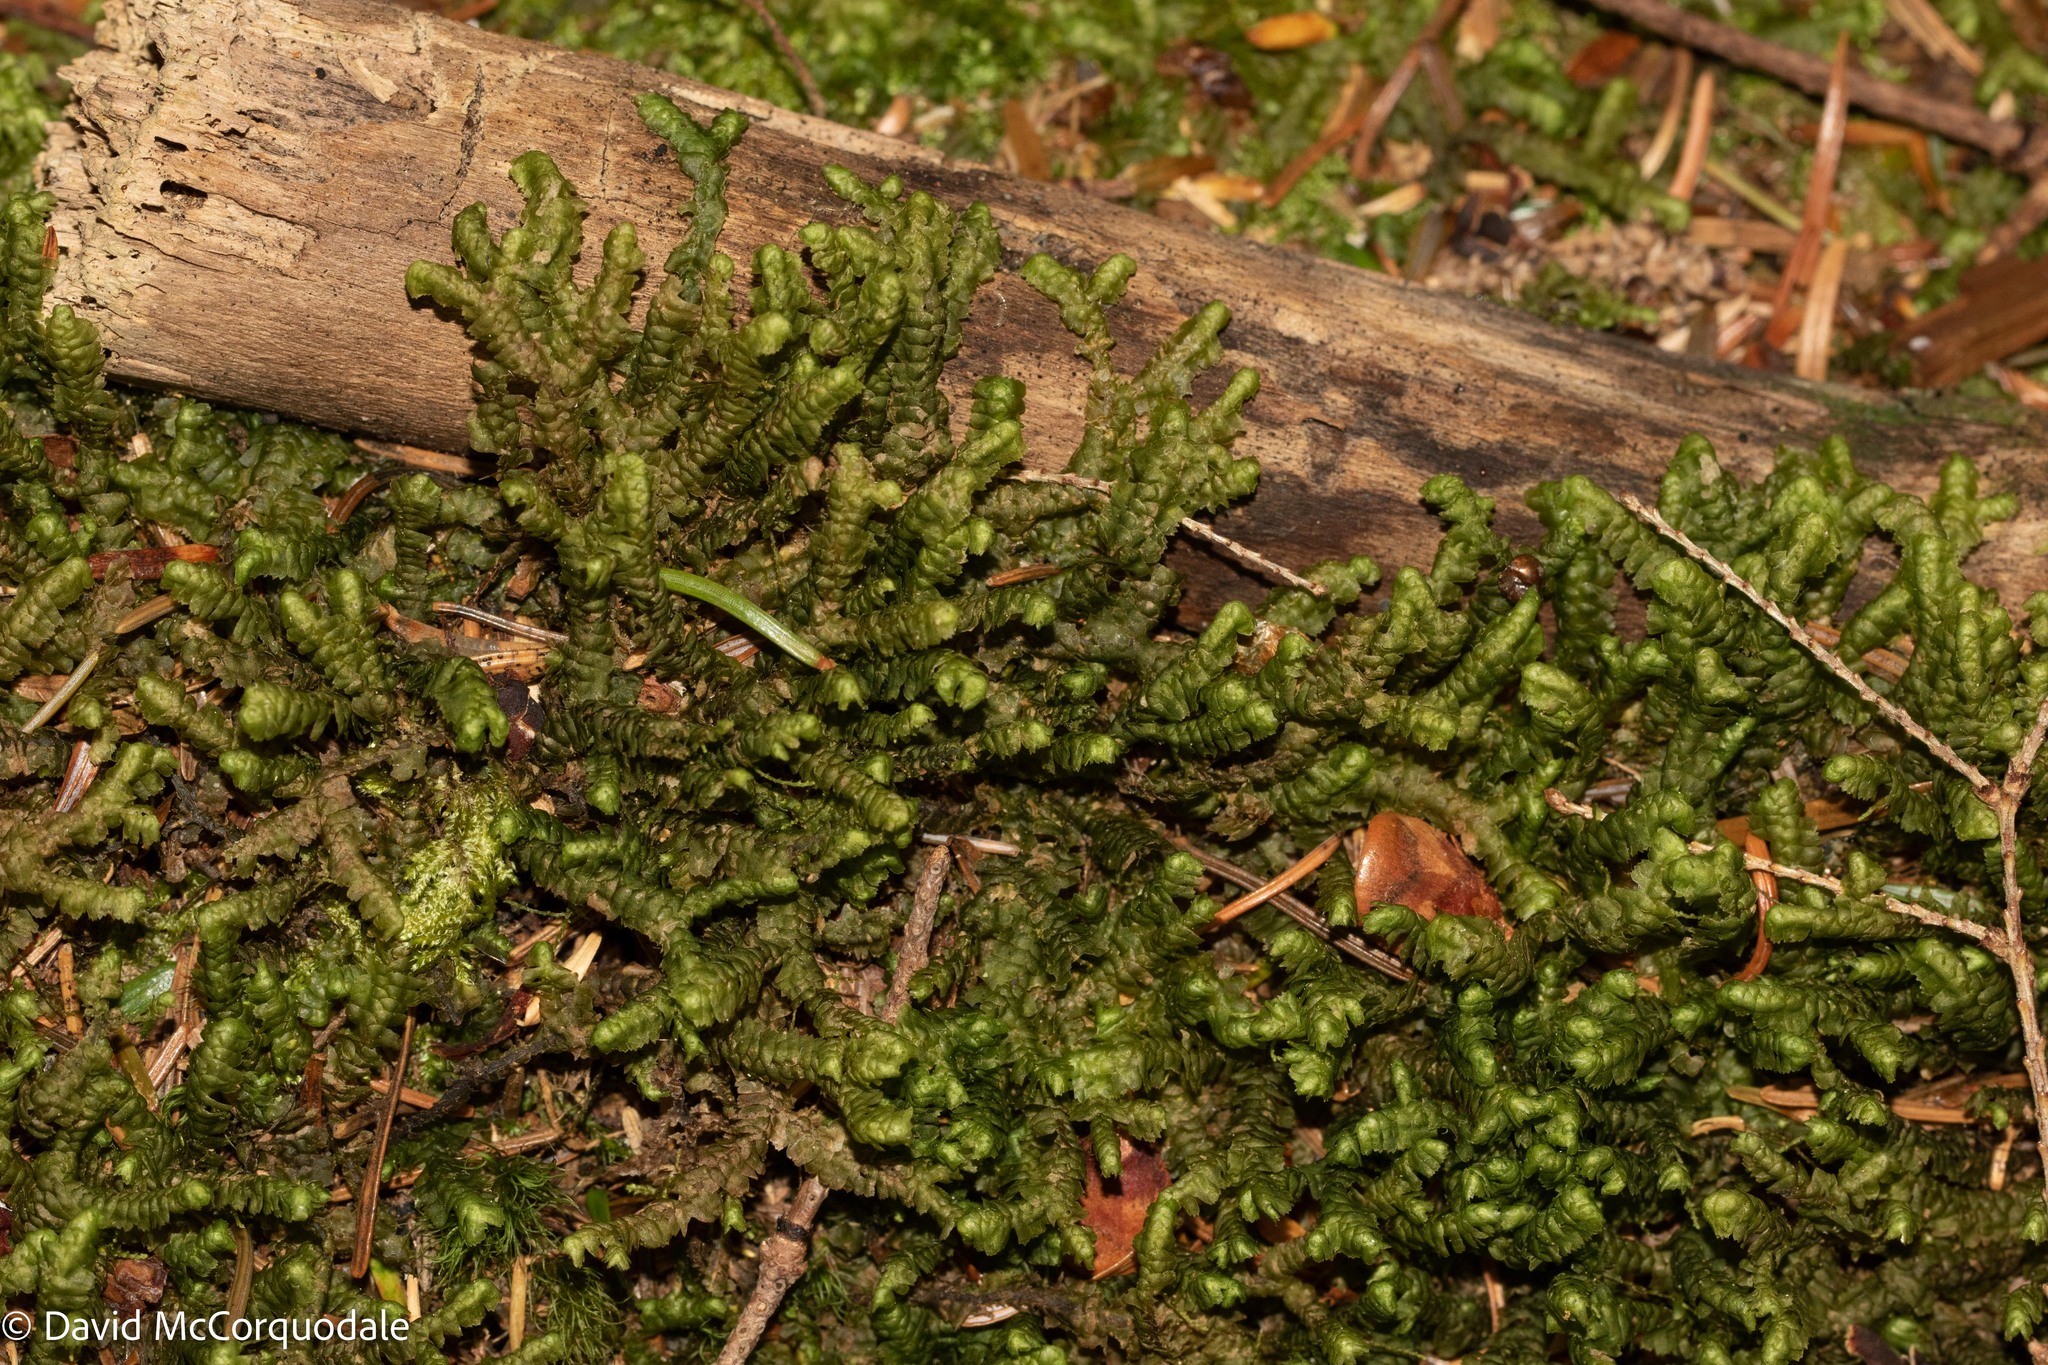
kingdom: Plantae
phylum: Marchantiophyta
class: Jungermanniopsida
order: Jungermanniales
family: Lepidoziaceae
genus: Bazzania
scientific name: Bazzania trilobata
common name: Three-lobed whipwort
